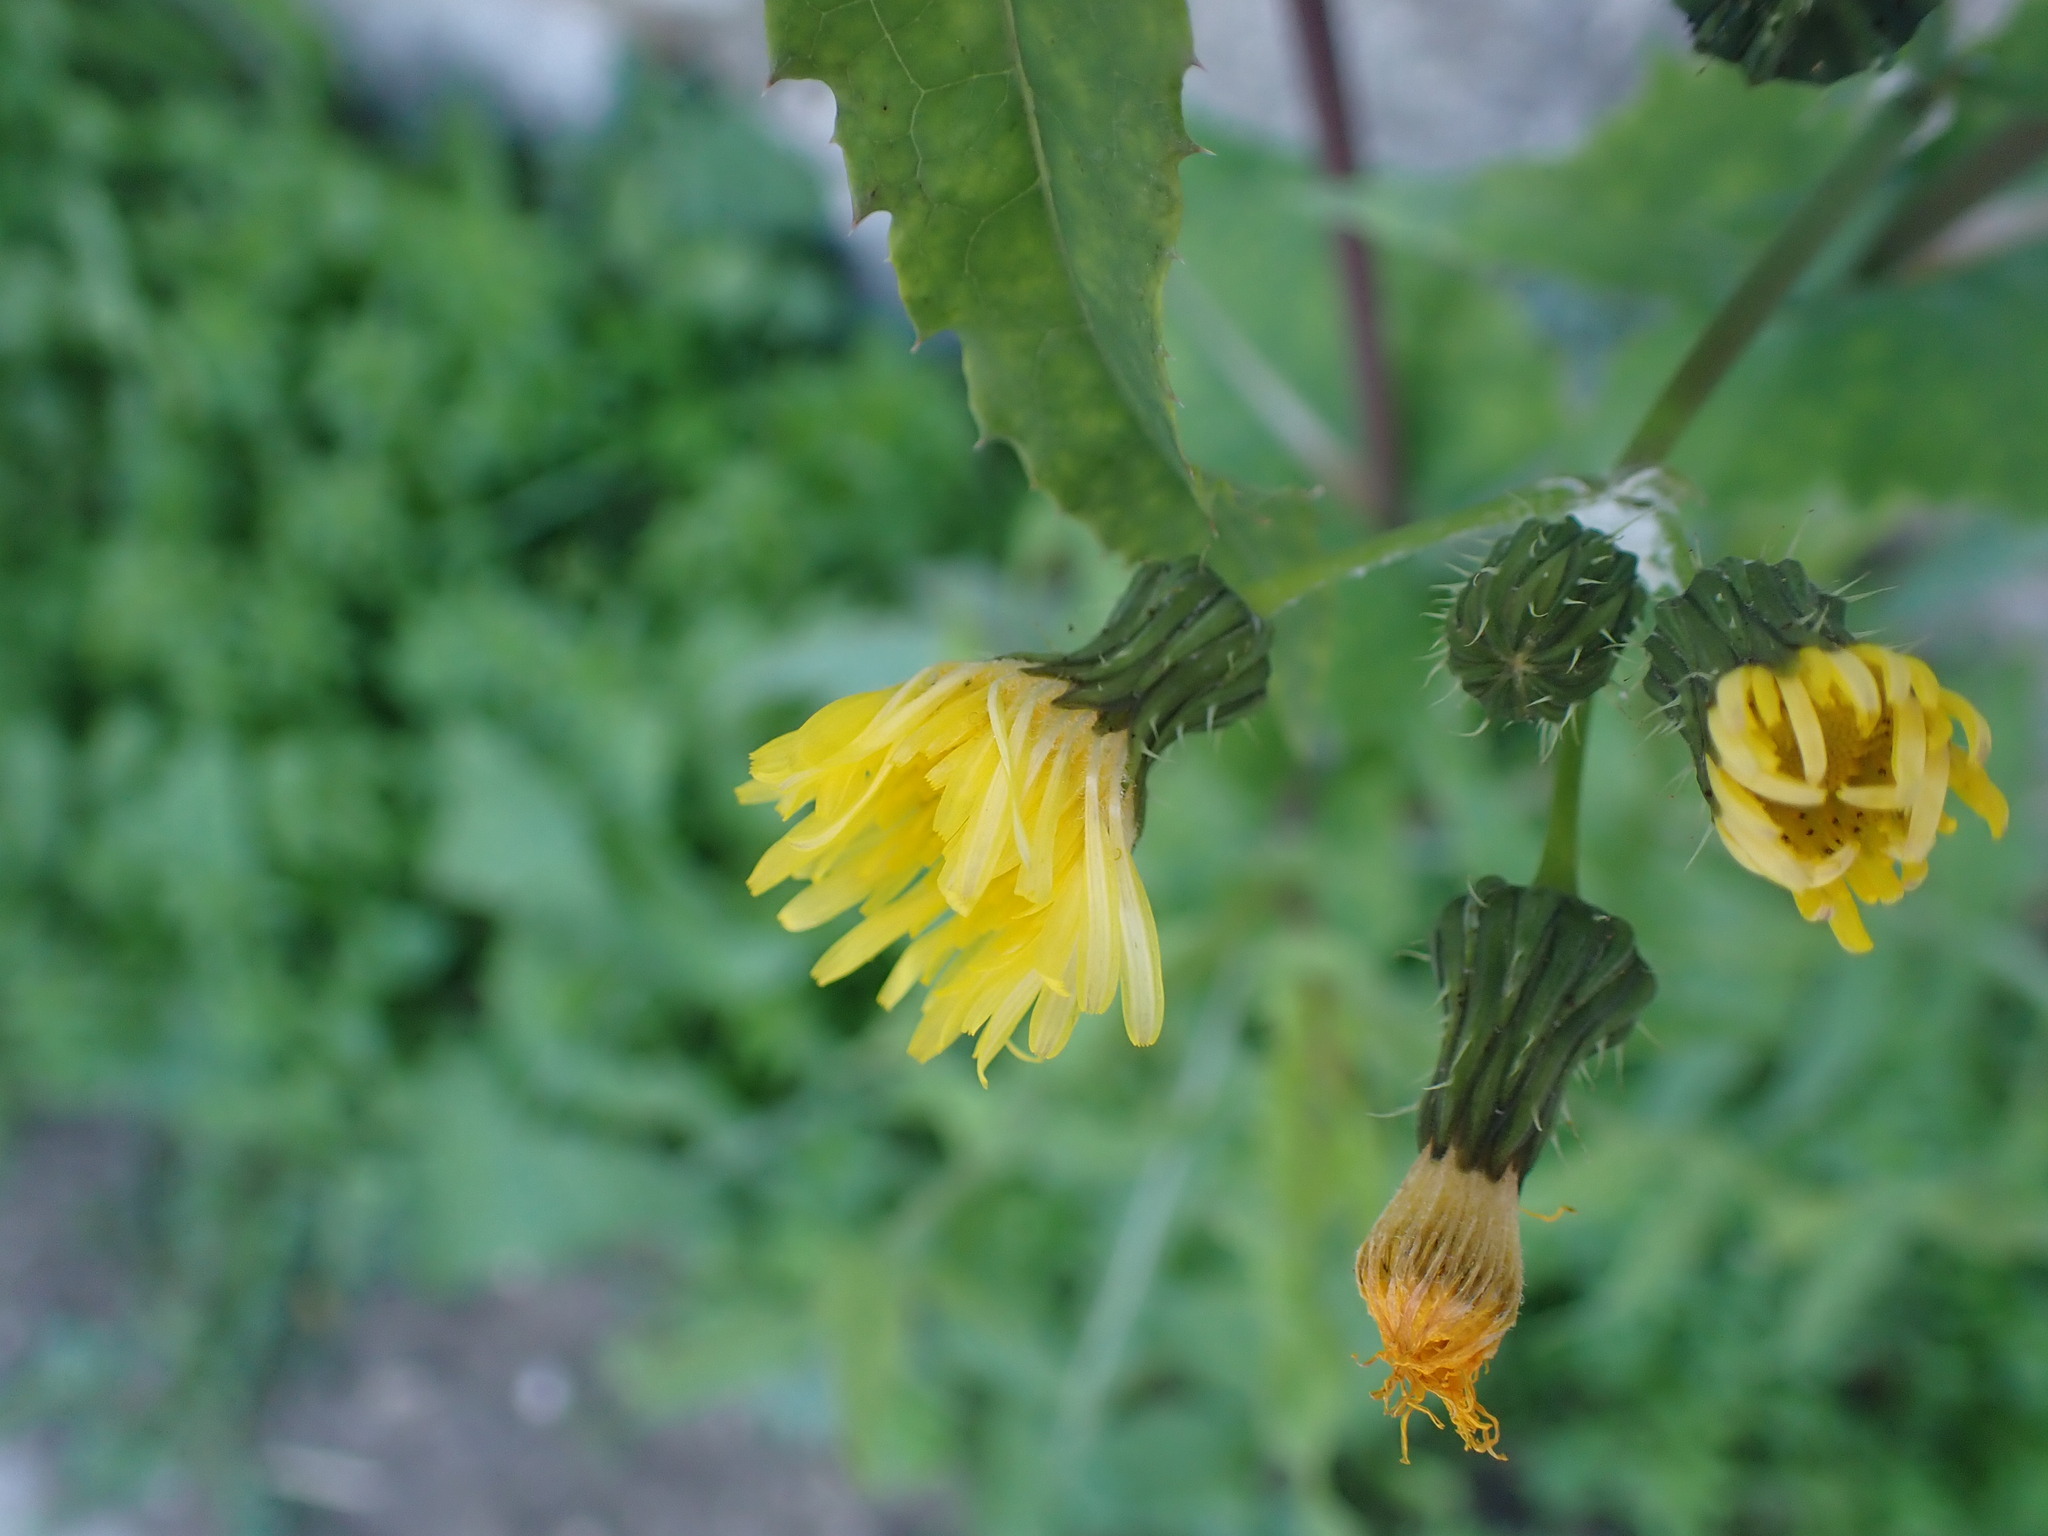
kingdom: Plantae
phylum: Tracheophyta
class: Magnoliopsida
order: Asterales
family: Asteraceae
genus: Sonchus
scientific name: Sonchus oleraceus
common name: Common sowthistle
